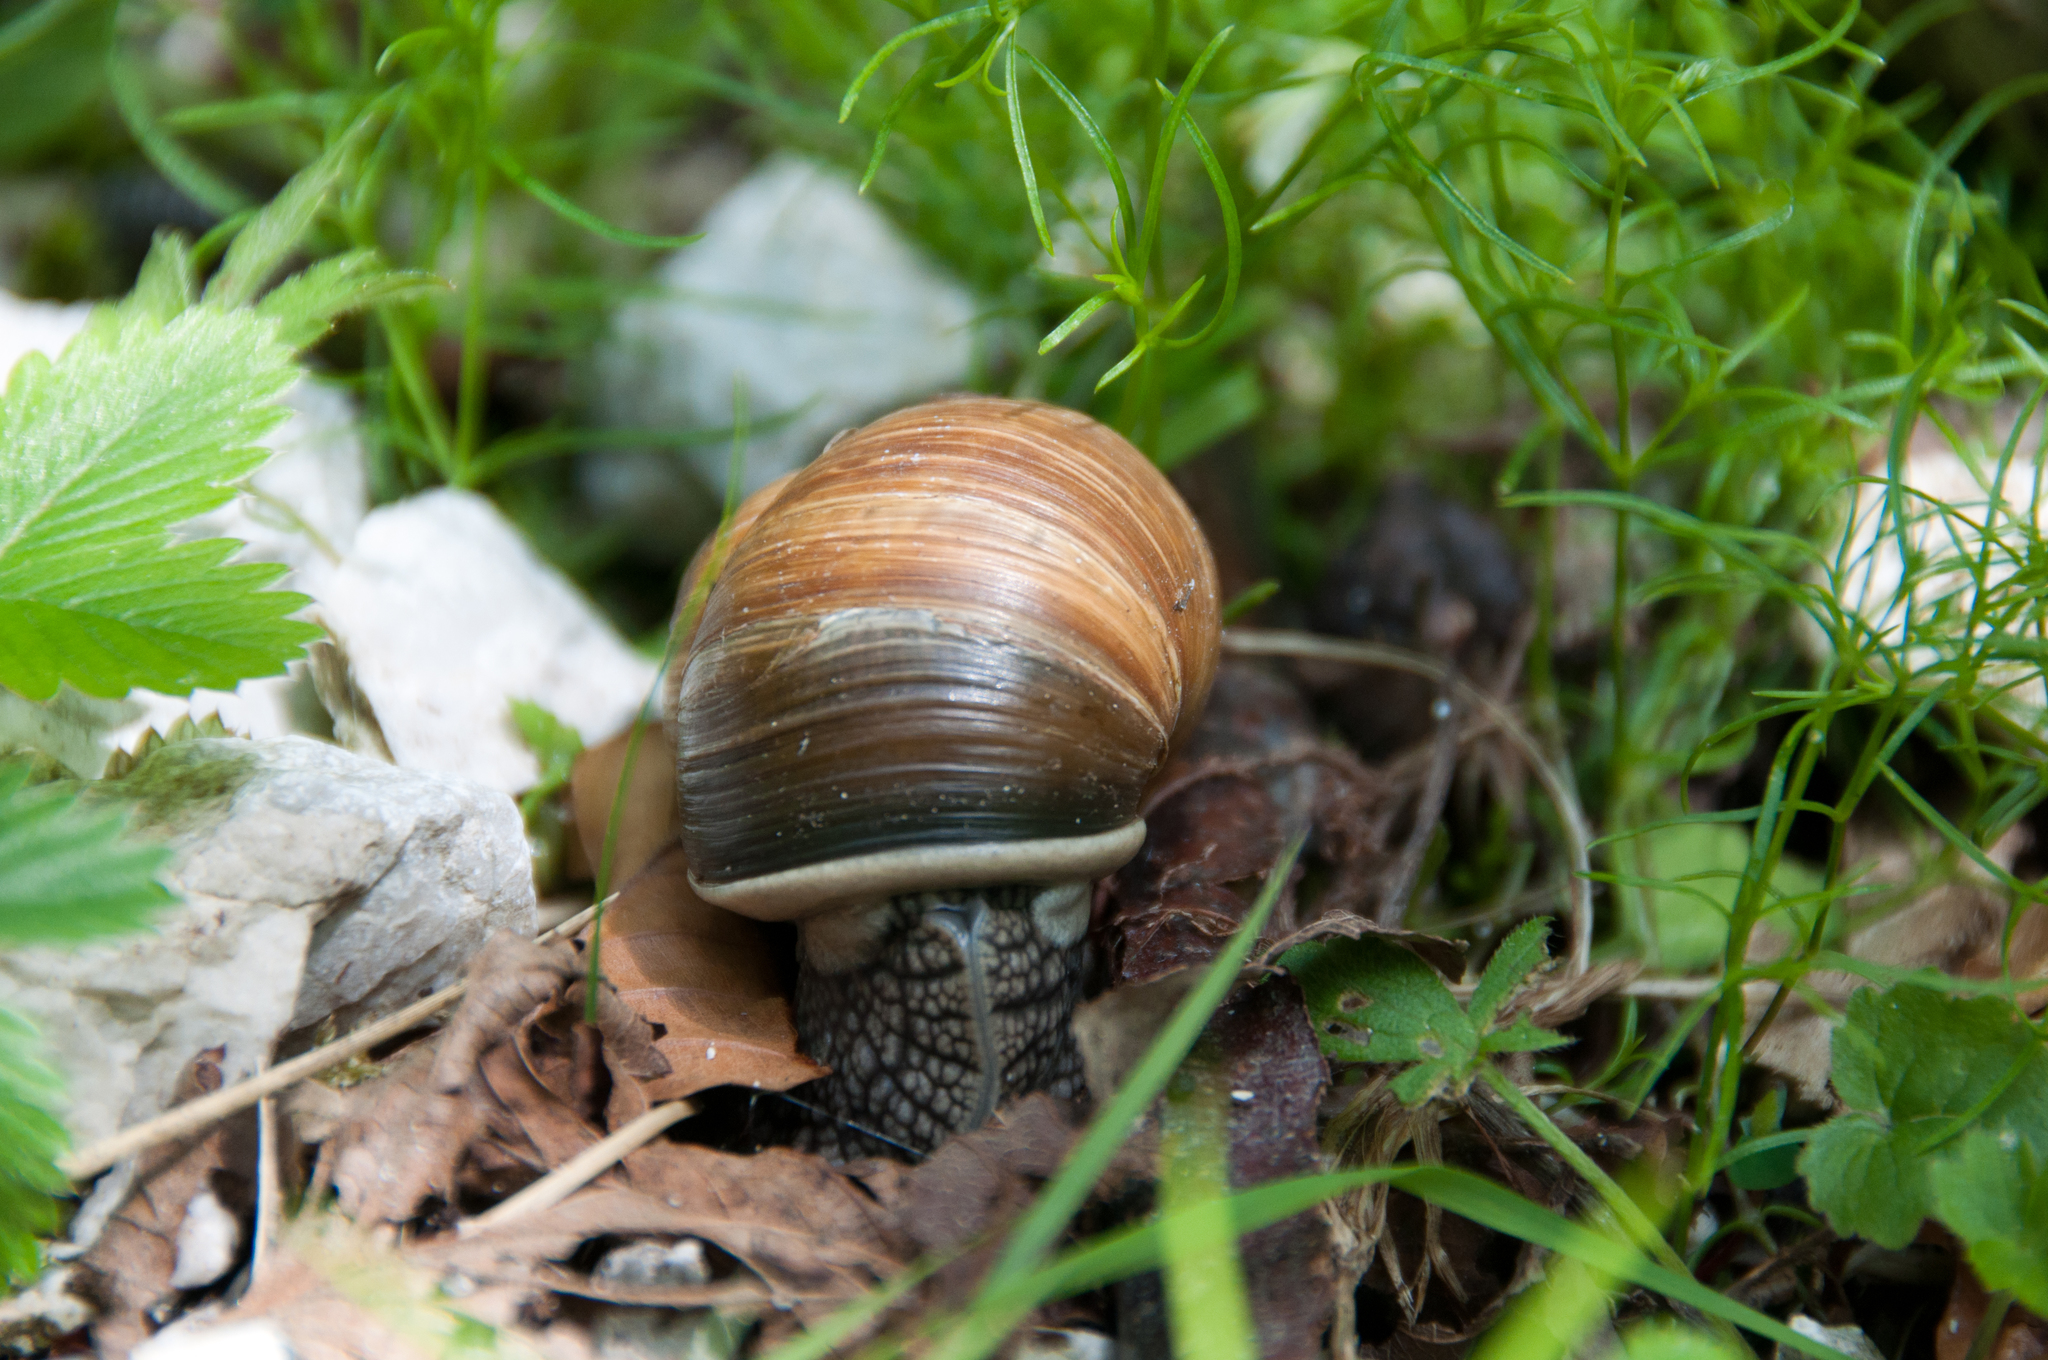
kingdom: Animalia
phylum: Mollusca
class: Gastropoda
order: Stylommatophora
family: Helicidae
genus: Helix
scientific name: Helix pomatia
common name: Roman snail
